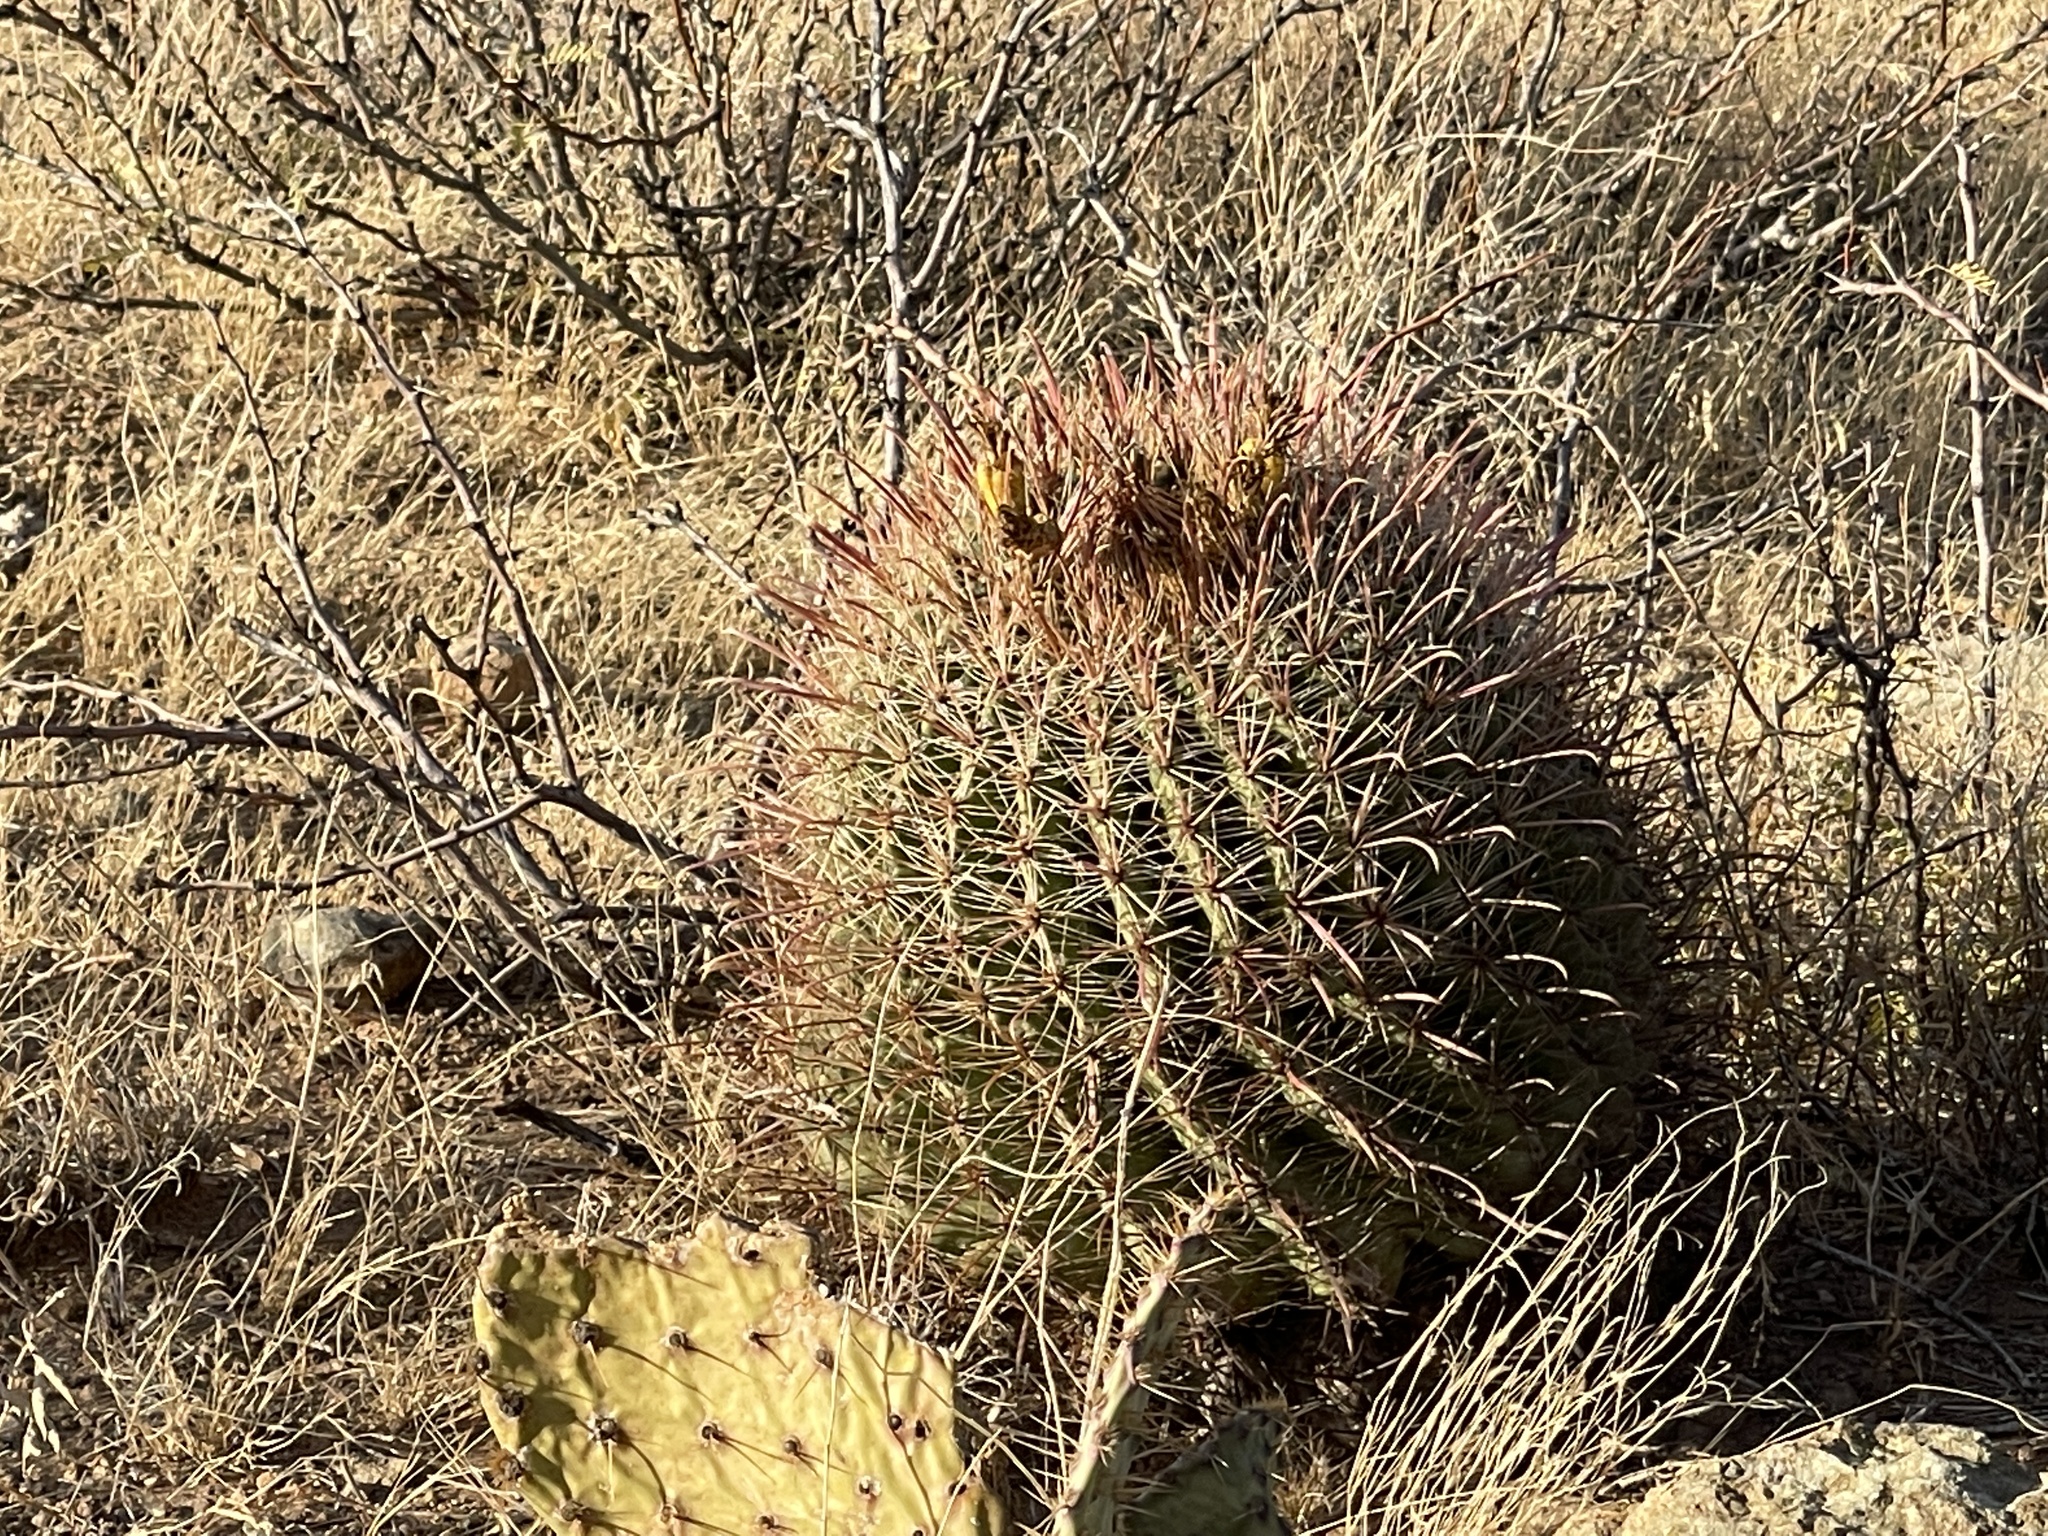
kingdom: Plantae
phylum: Tracheophyta
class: Magnoliopsida
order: Caryophyllales
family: Cactaceae
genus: Ferocactus
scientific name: Ferocactus wislizeni
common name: Candy barrel cactus
